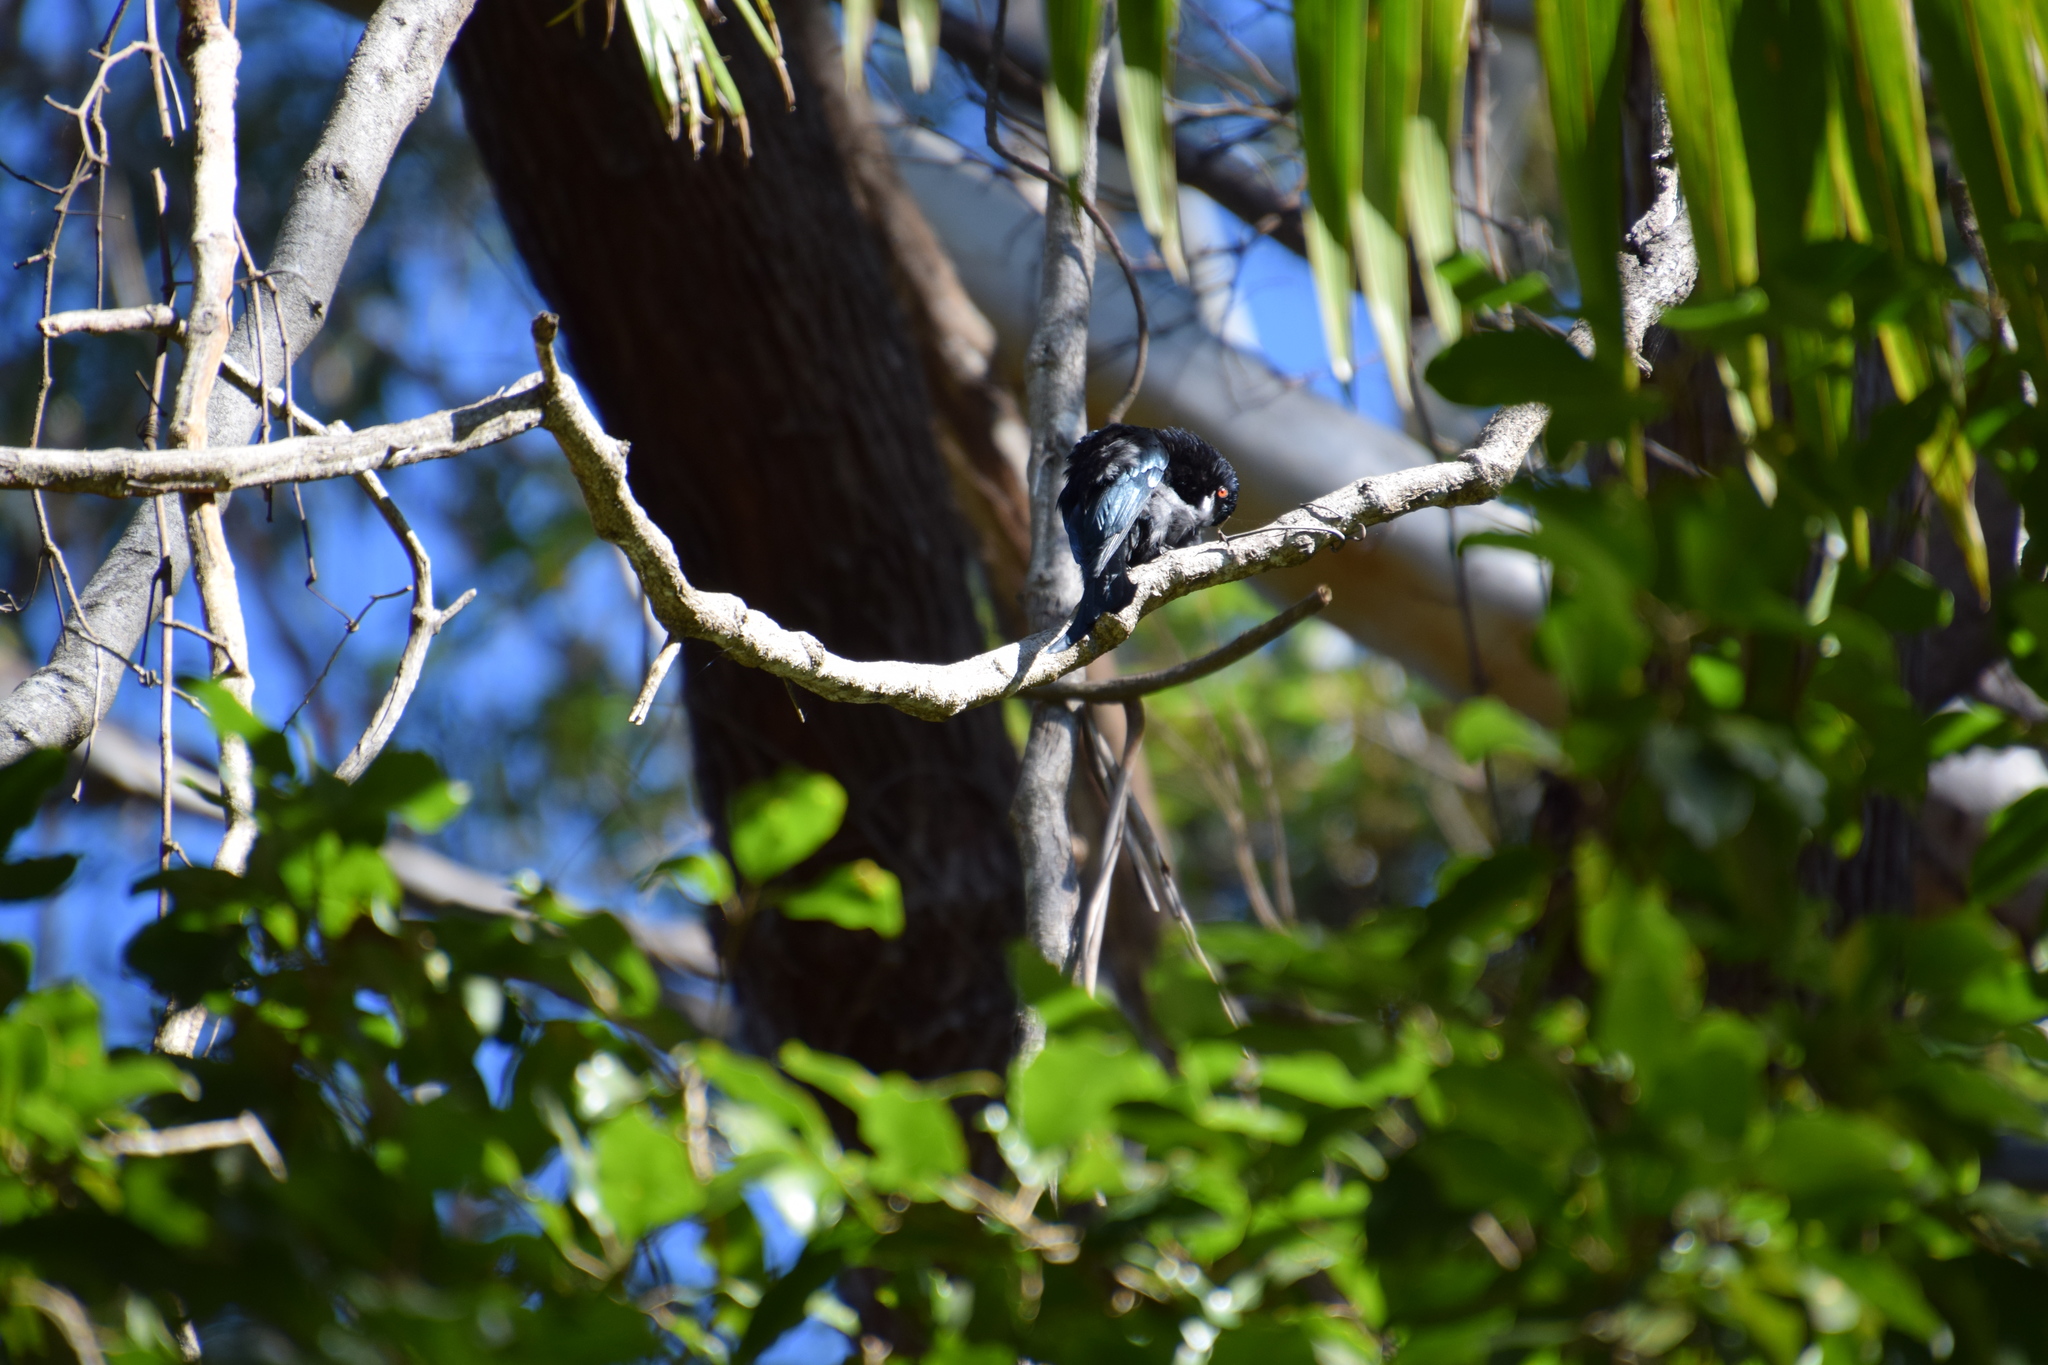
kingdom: Animalia
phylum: Chordata
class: Aves
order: Passeriformes
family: Dicruridae
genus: Dicrurus
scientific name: Dicrurus bracteatus
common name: Spangled drongo
